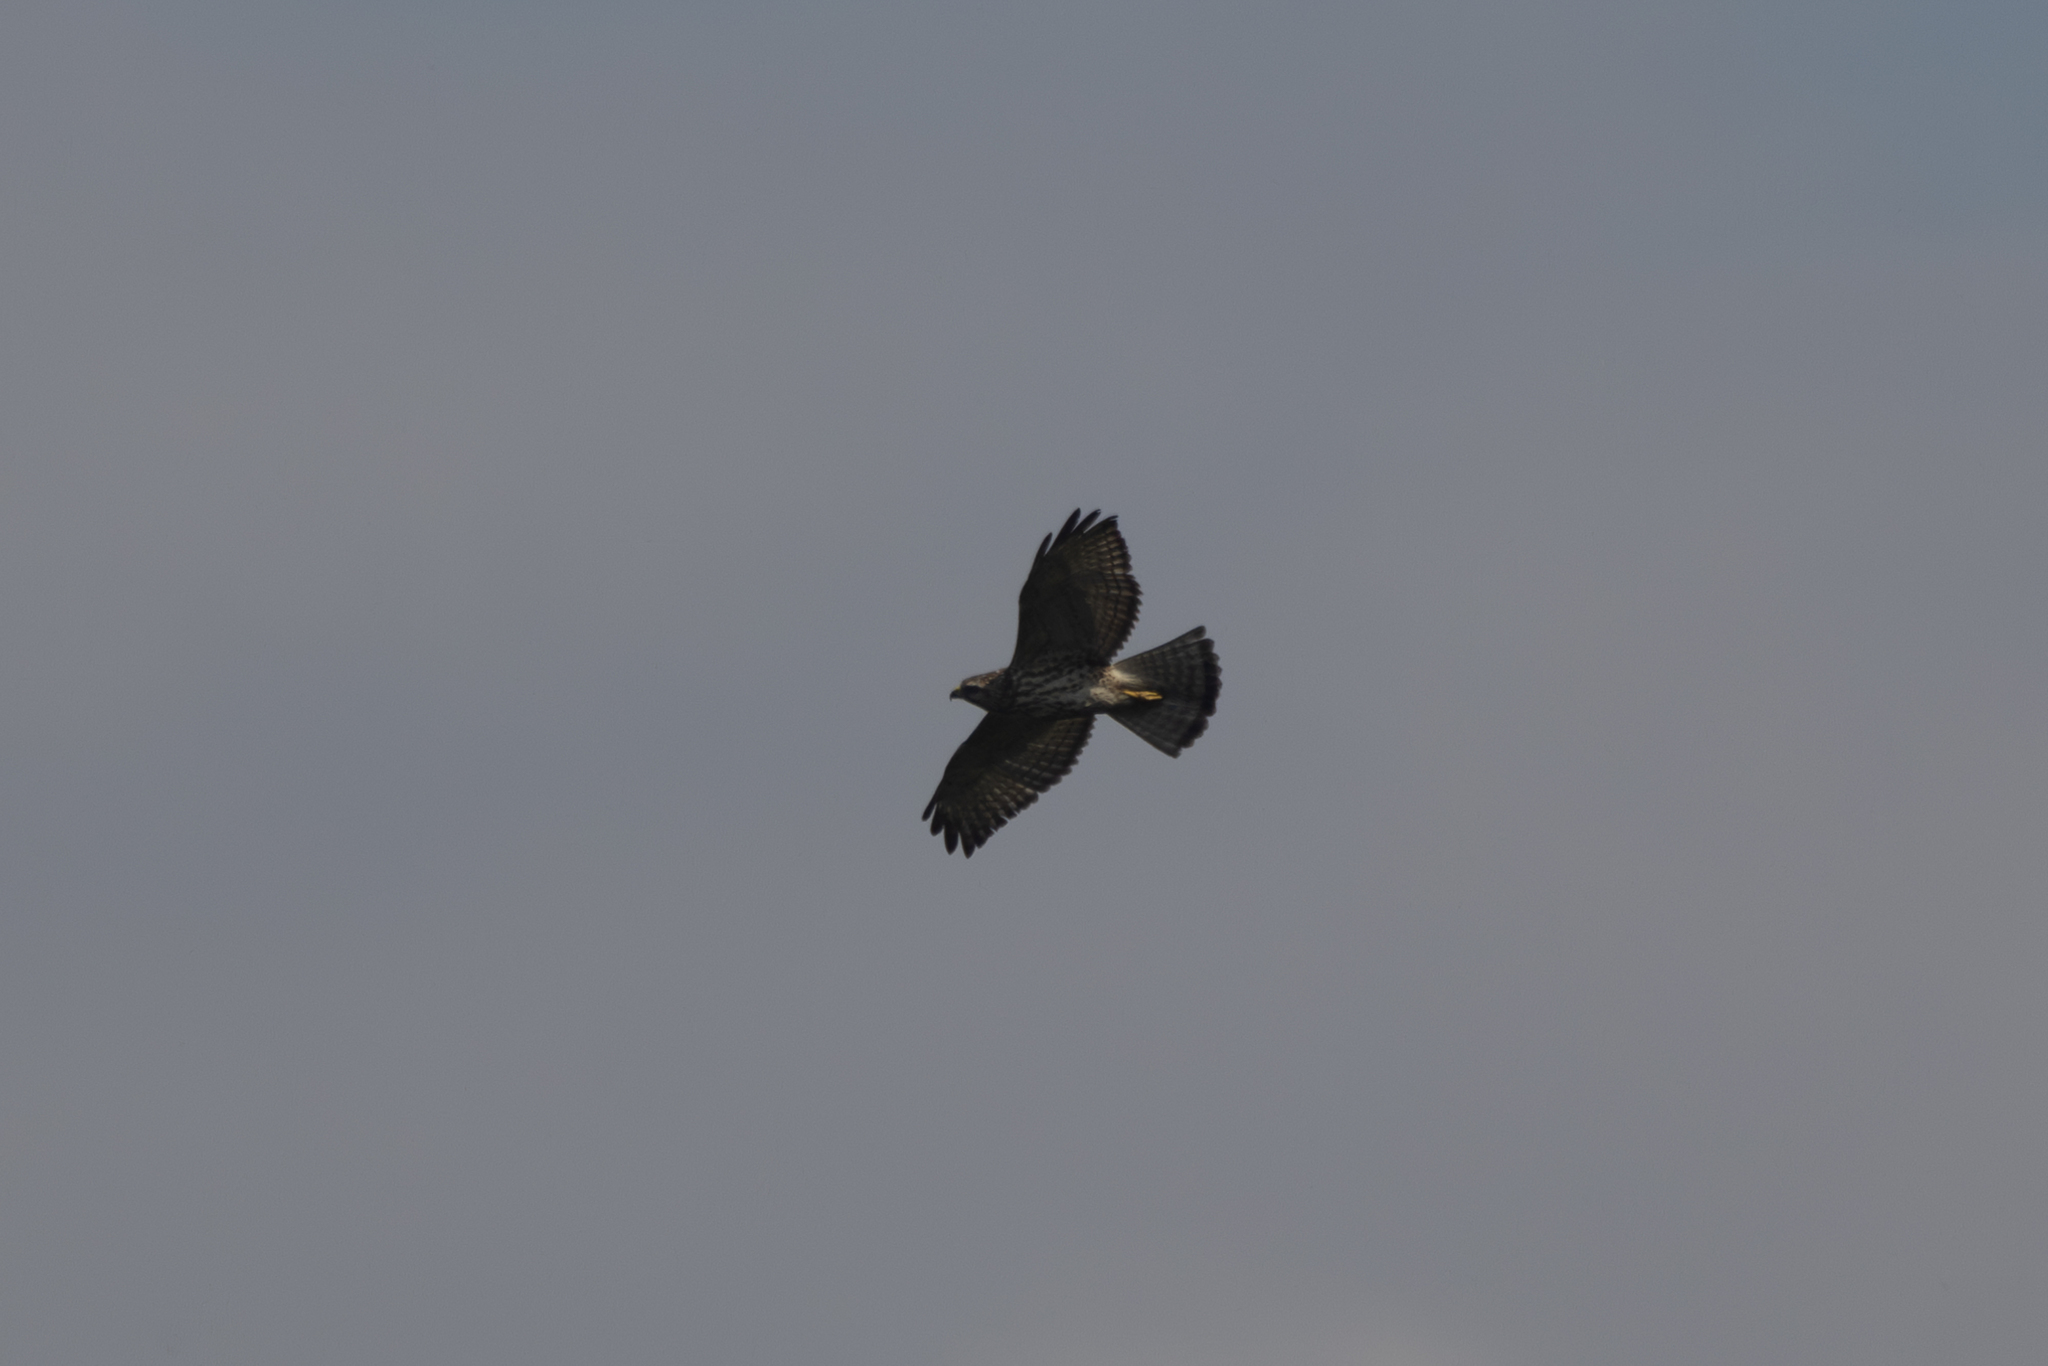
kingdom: Animalia
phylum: Chordata
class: Aves
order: Accipitriformes
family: Accipitridae
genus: Buteo
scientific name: Buteo platypterus
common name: Broad-winged hawk
